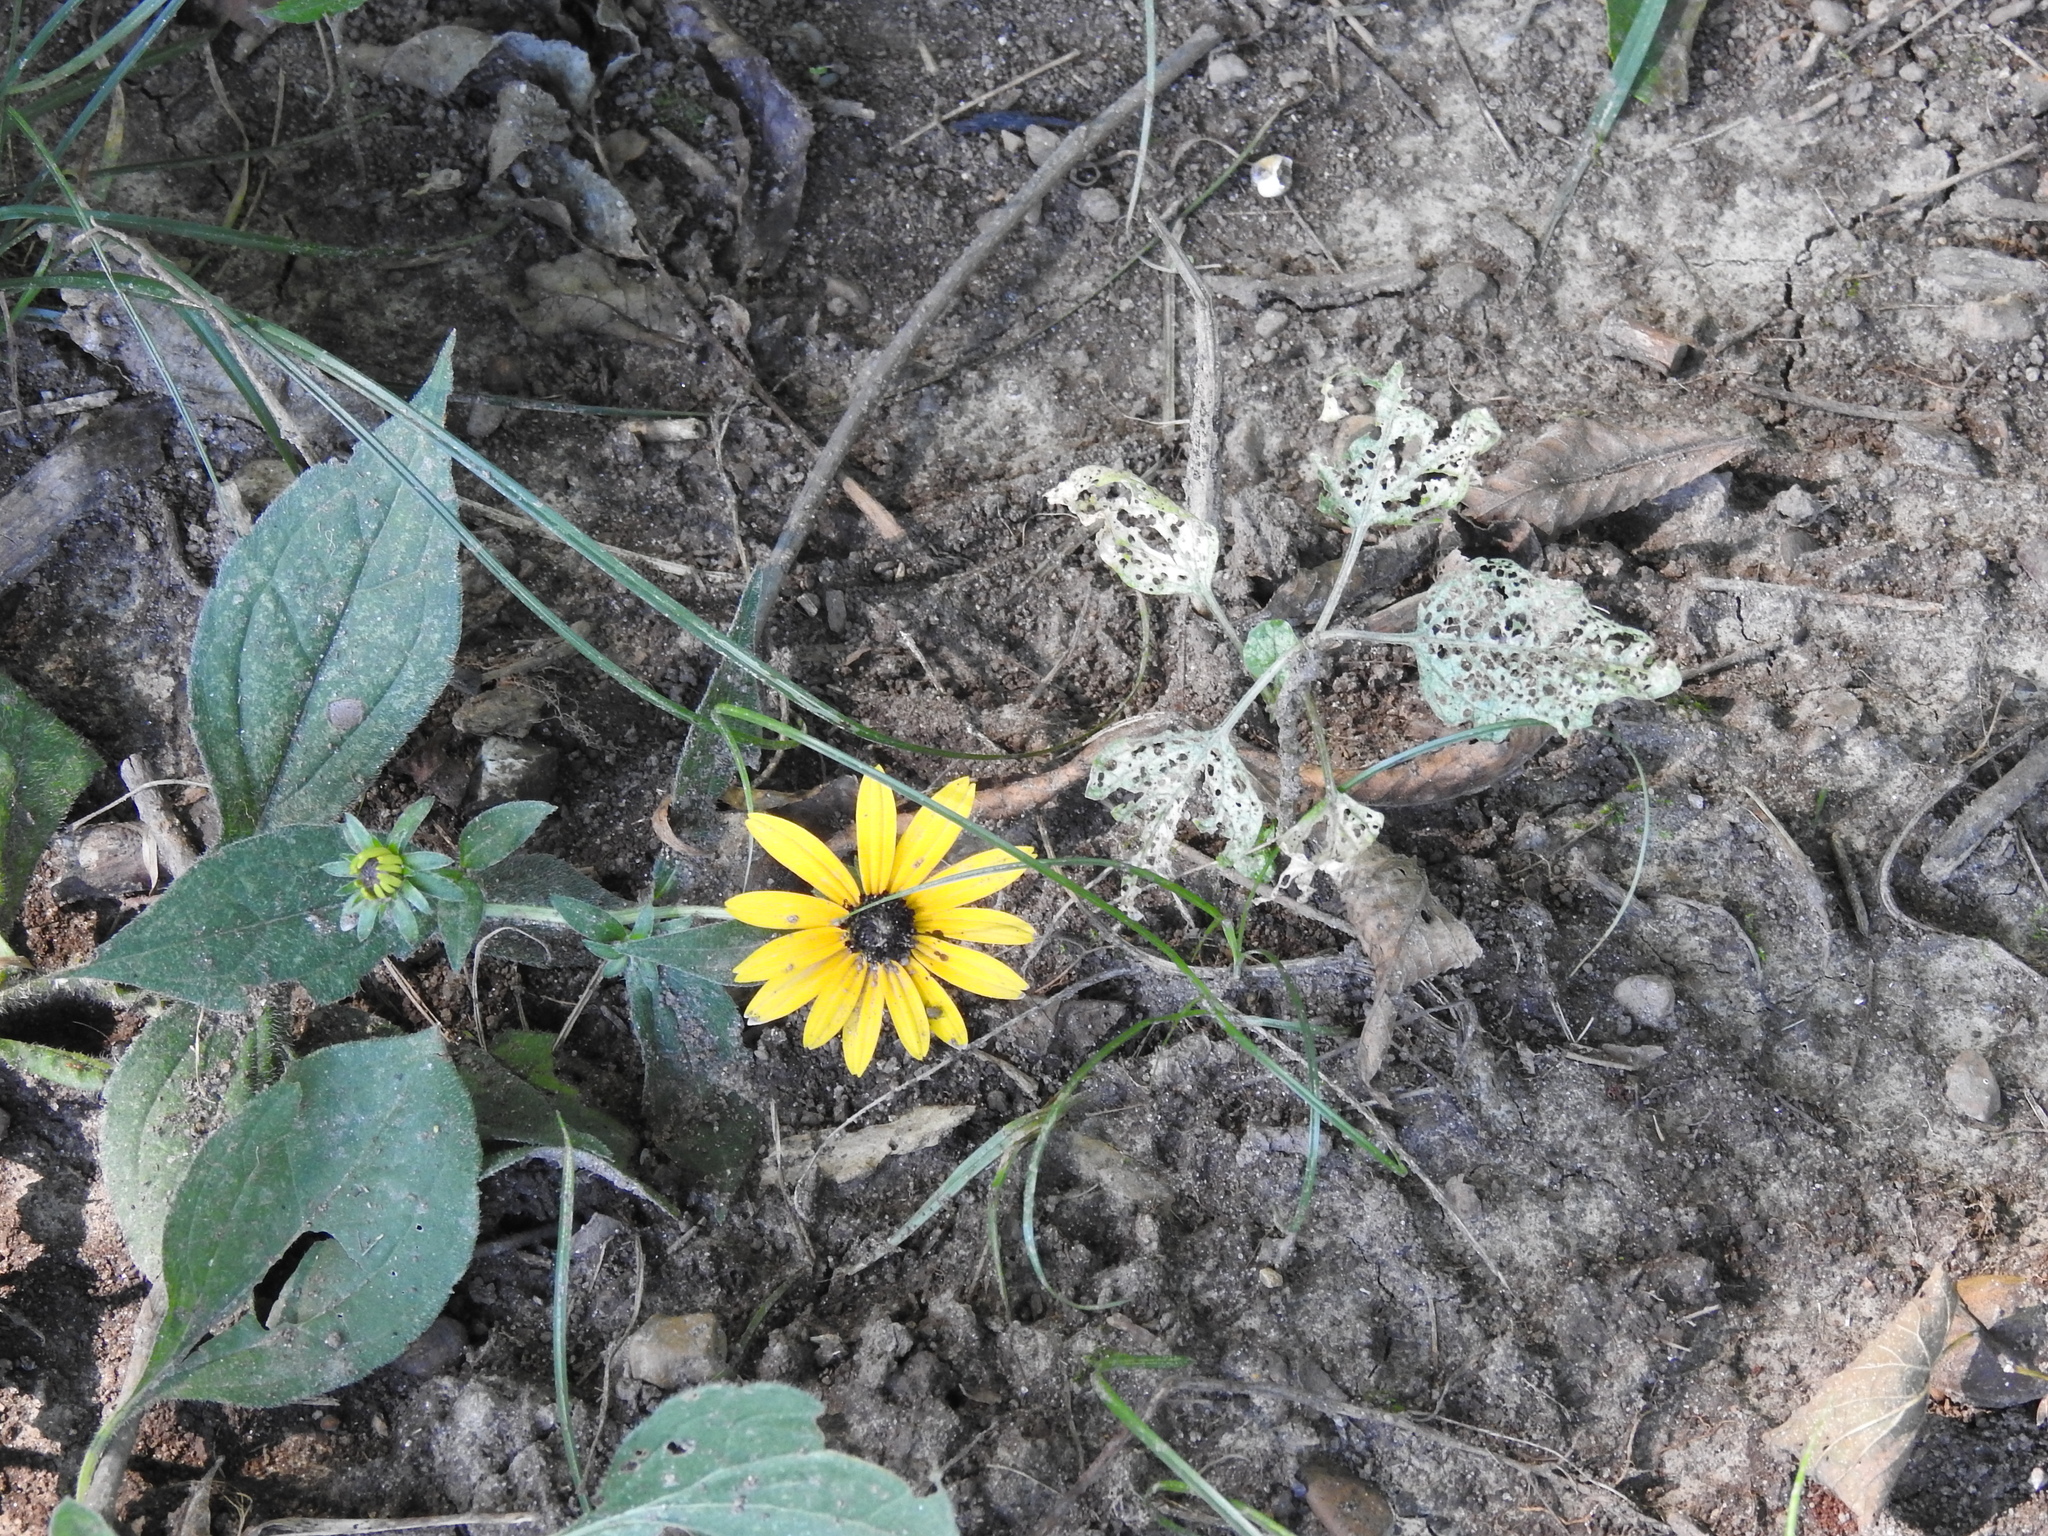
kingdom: Plantae
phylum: Tracheophyta
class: Magnoliopsida
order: Asterales
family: Asteraceae
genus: Rudbeckia
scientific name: Rudbeckia hirta
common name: Black-eyed-susan
